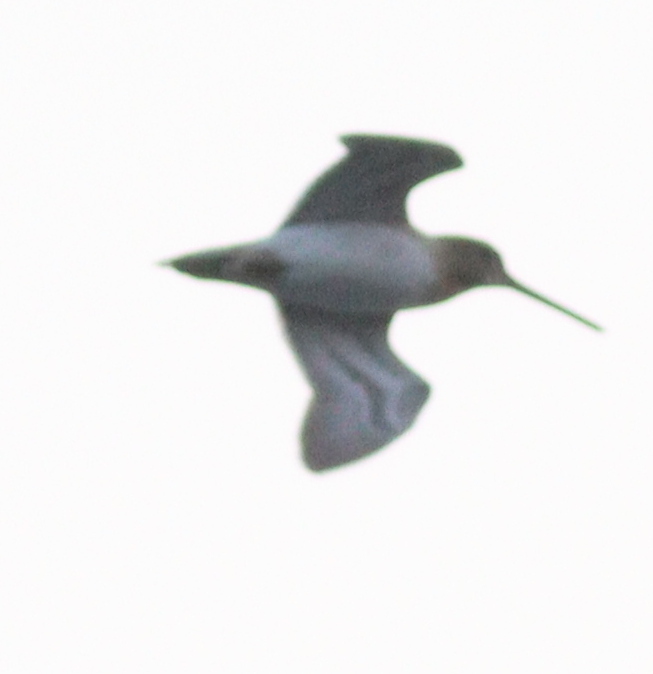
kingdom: Animalia
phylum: Chordata
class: Aves
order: Charadriiformes
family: Scolopacidae
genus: Gallinago
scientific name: Gallinago gallinago
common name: Common snipe
